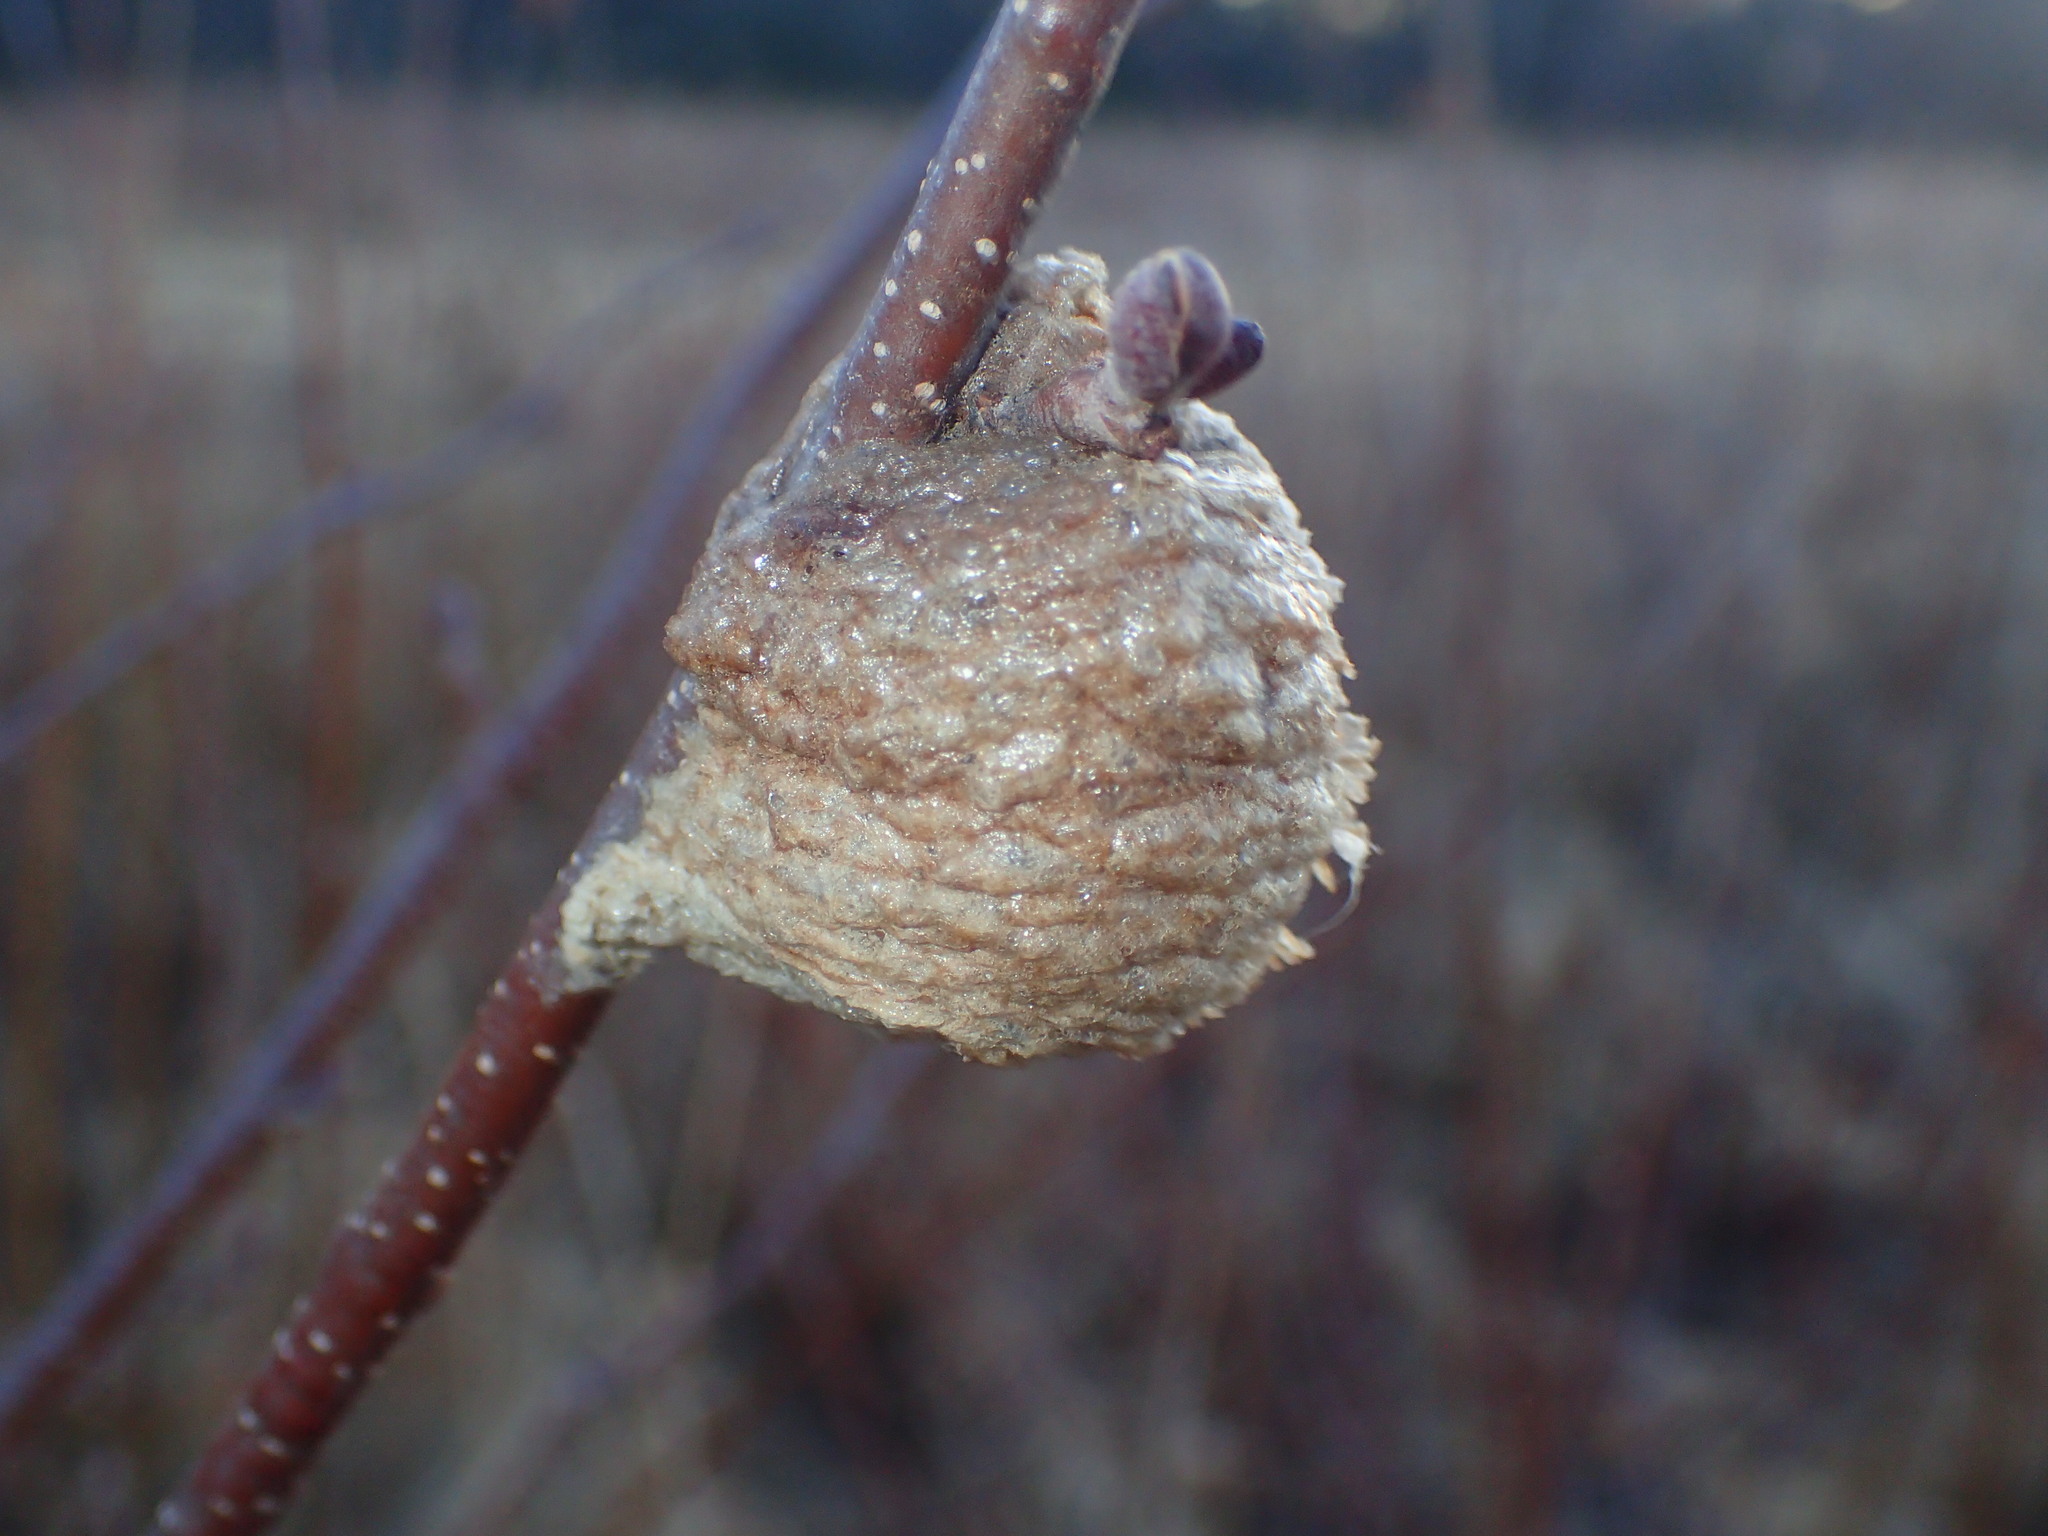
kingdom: Animalia
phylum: Arthropoda
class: Insecta
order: Mantodea
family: Mantidae
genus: Tenodera
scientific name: Tenodera sinensis
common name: Chinese mantis
